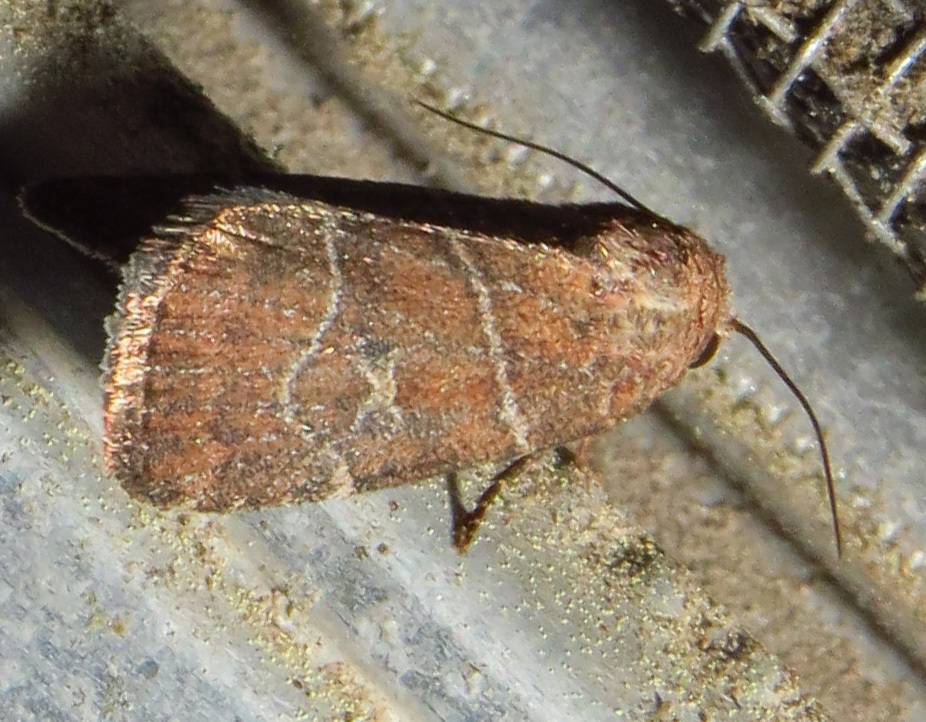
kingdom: Animalia
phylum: Arthropoda
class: Insecta
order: Lepidoptera
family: Noctuidae
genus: Elaphria
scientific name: Elaphria grata
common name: Grateful midget moth
